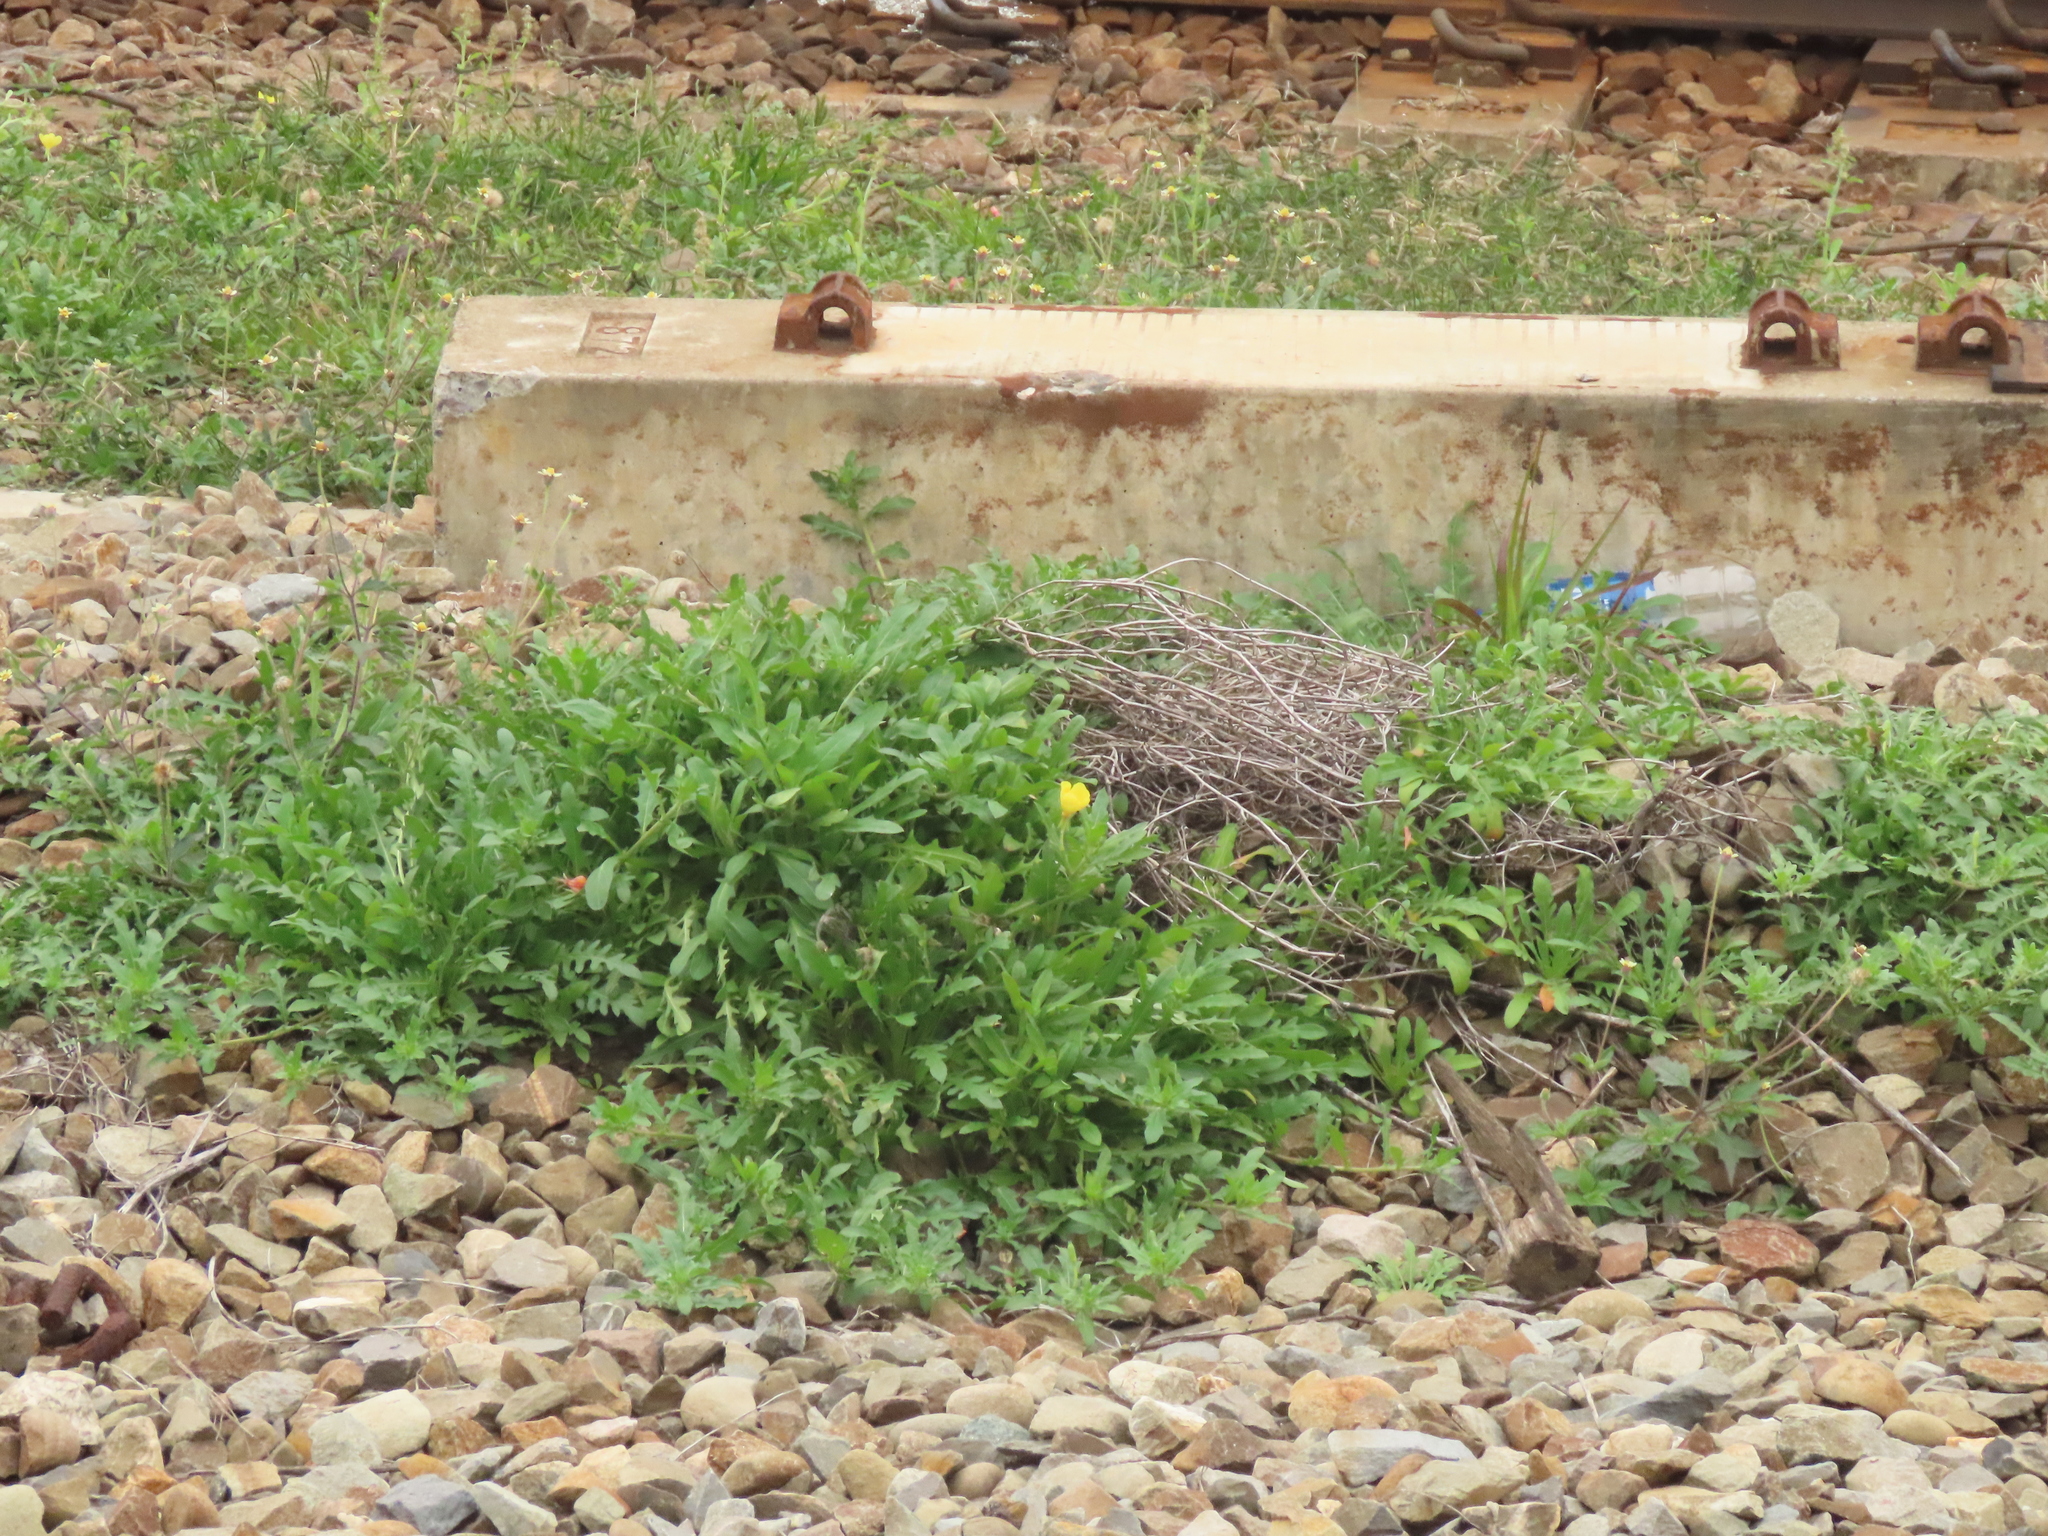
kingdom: Plantae
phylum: Tracheophyta
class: Magnoliopsida
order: Myrtales
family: Onagraceae
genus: Oenothera
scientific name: Oenothera laciniata
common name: Cut-leaved evening-primrose
